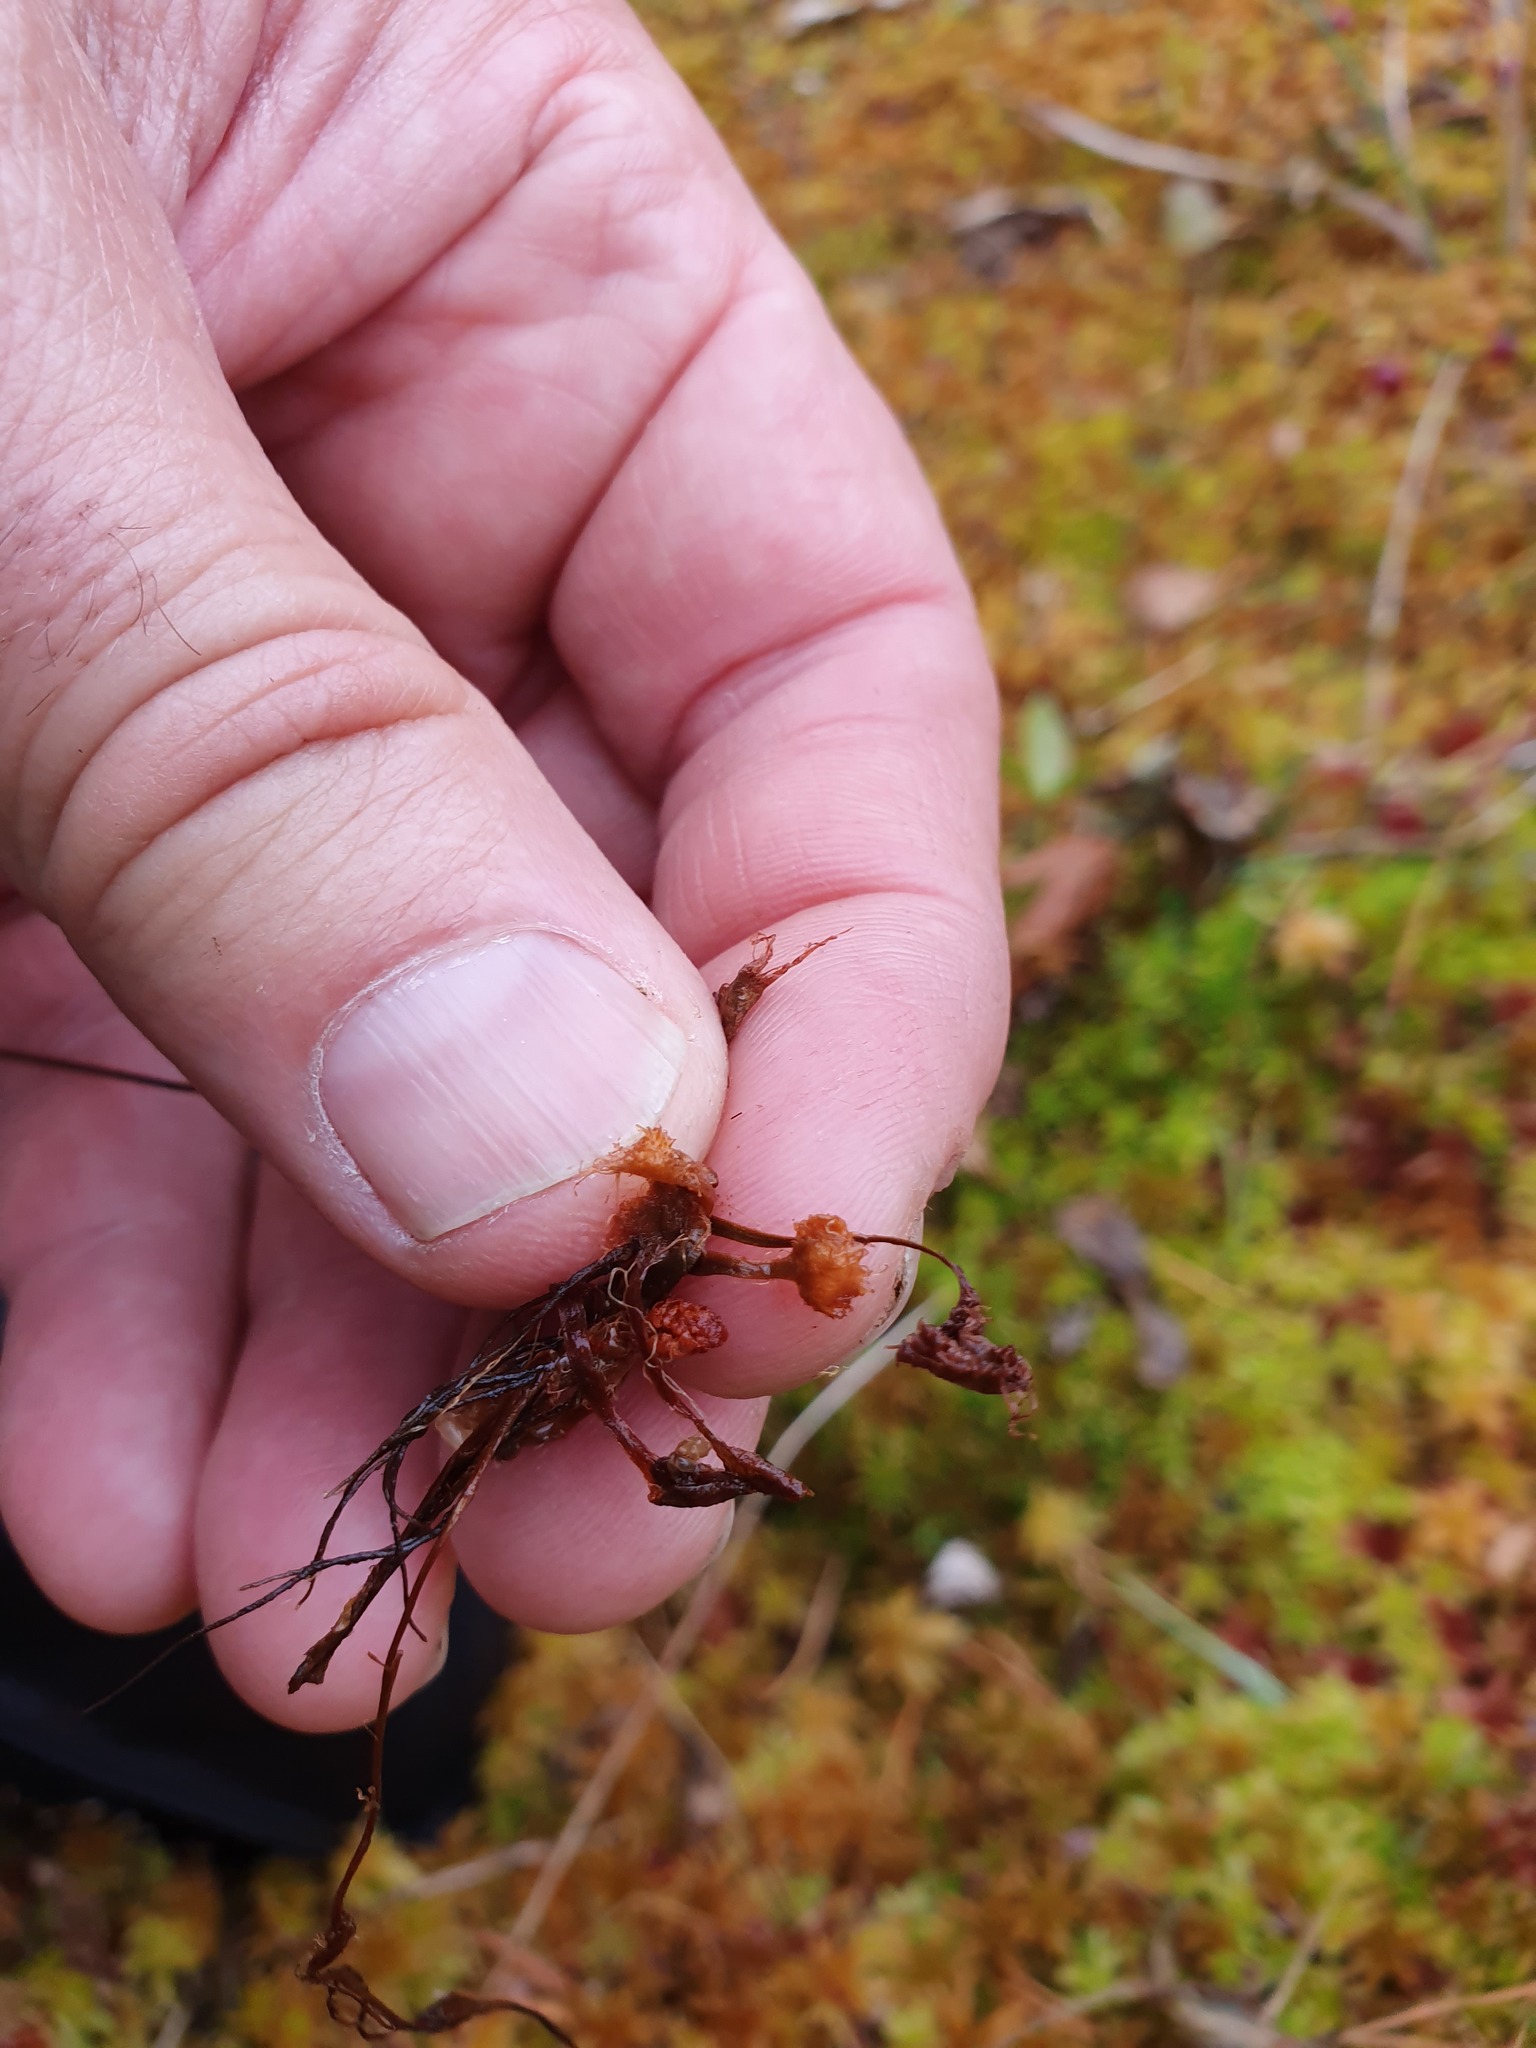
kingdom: Plantae
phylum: Tracheophyta
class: Magnoliopsida
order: Caryophyllales
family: Droseraceae
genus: Drosera
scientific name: Drosera rotundifolia
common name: Round-leaved sundew
